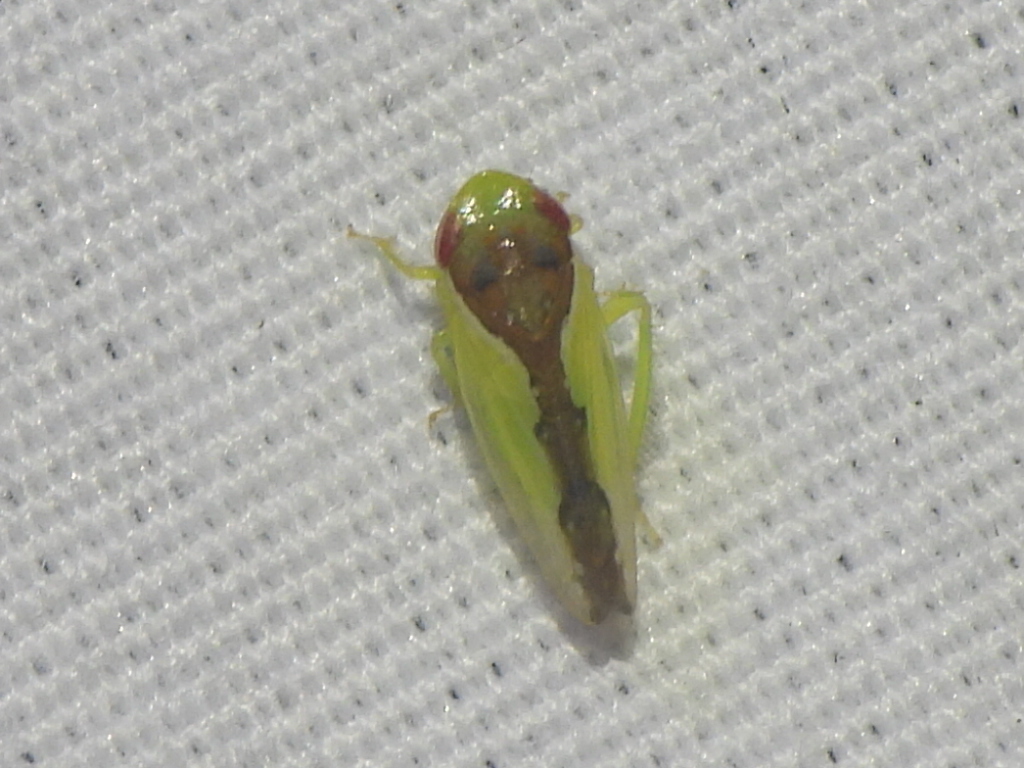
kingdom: Animalia
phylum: Arthropoda
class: Insecta
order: Hemiptera
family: Cicadellidae
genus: Omansobara ing
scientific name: Omansobara ing Omansobara palliolata
